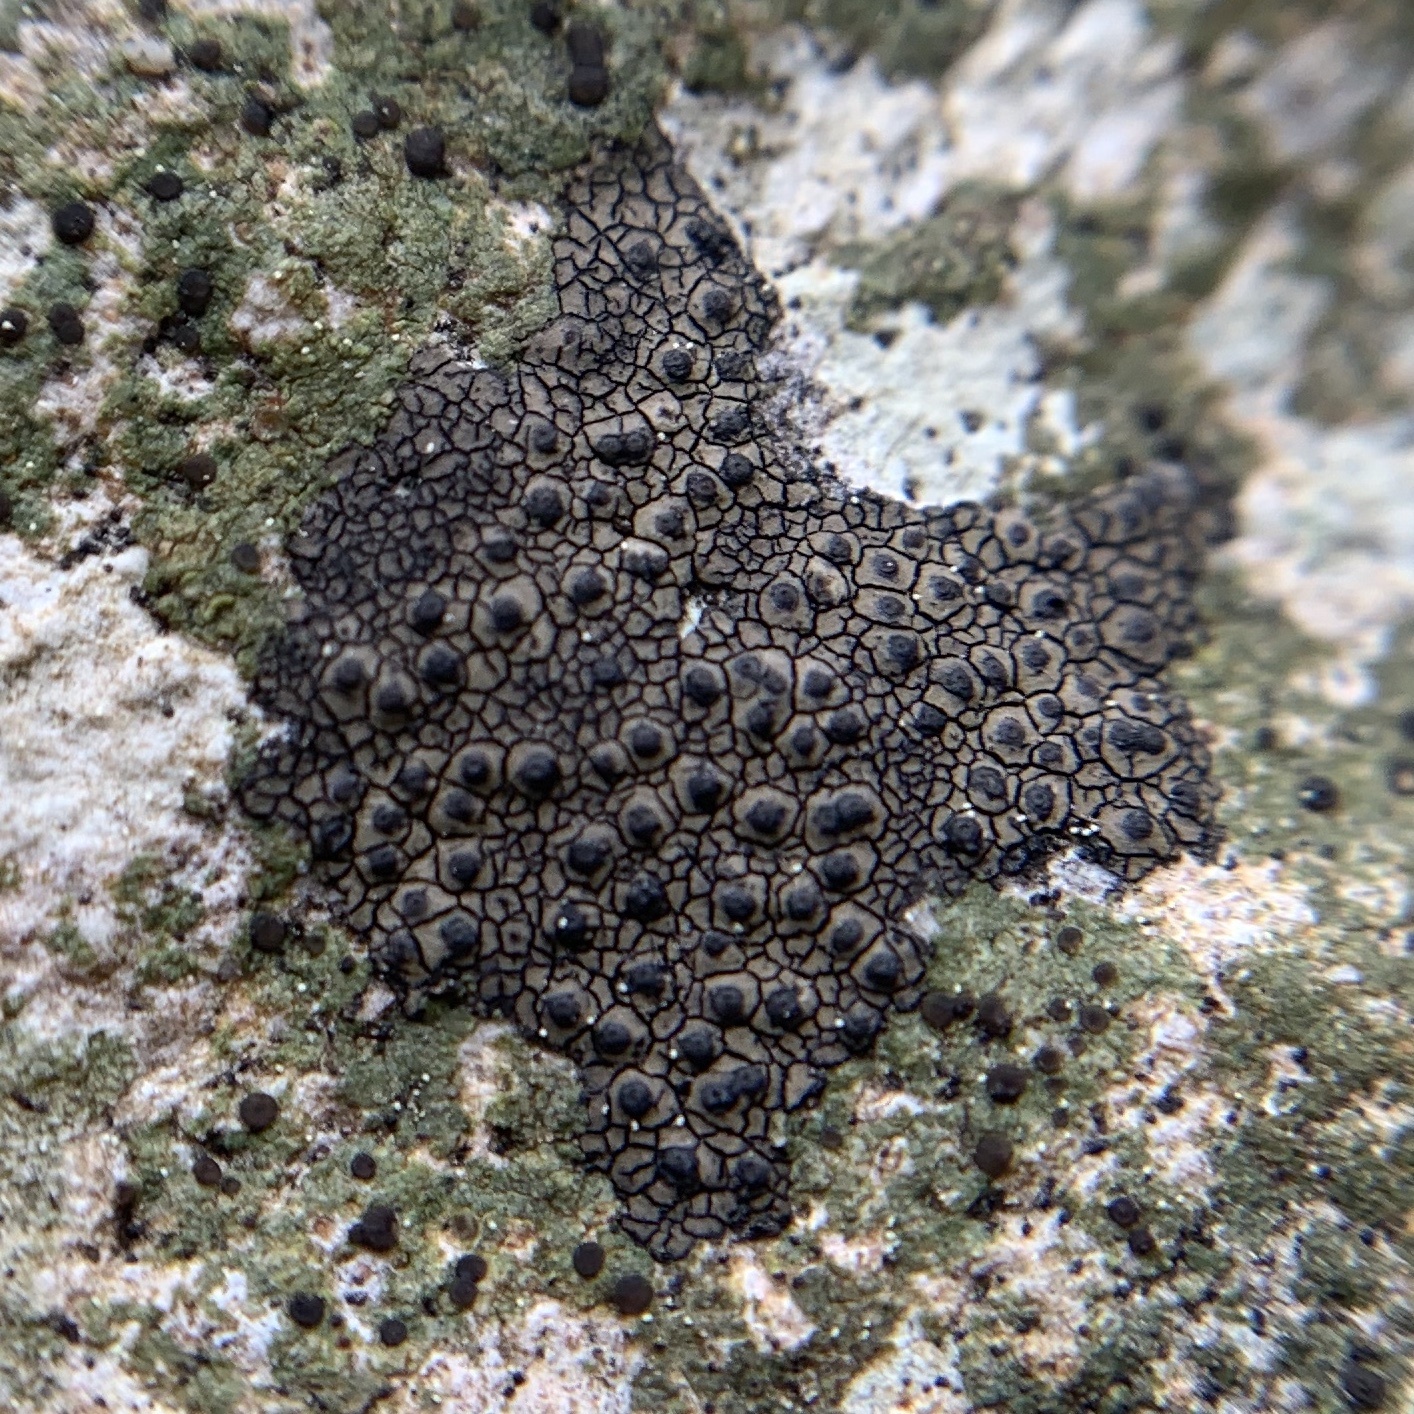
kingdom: Fungi
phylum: Ascomycota
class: Eurotiomycetes
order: Verrucariales
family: Verrucariaceae
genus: Willeya
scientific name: Willeya diffractella
